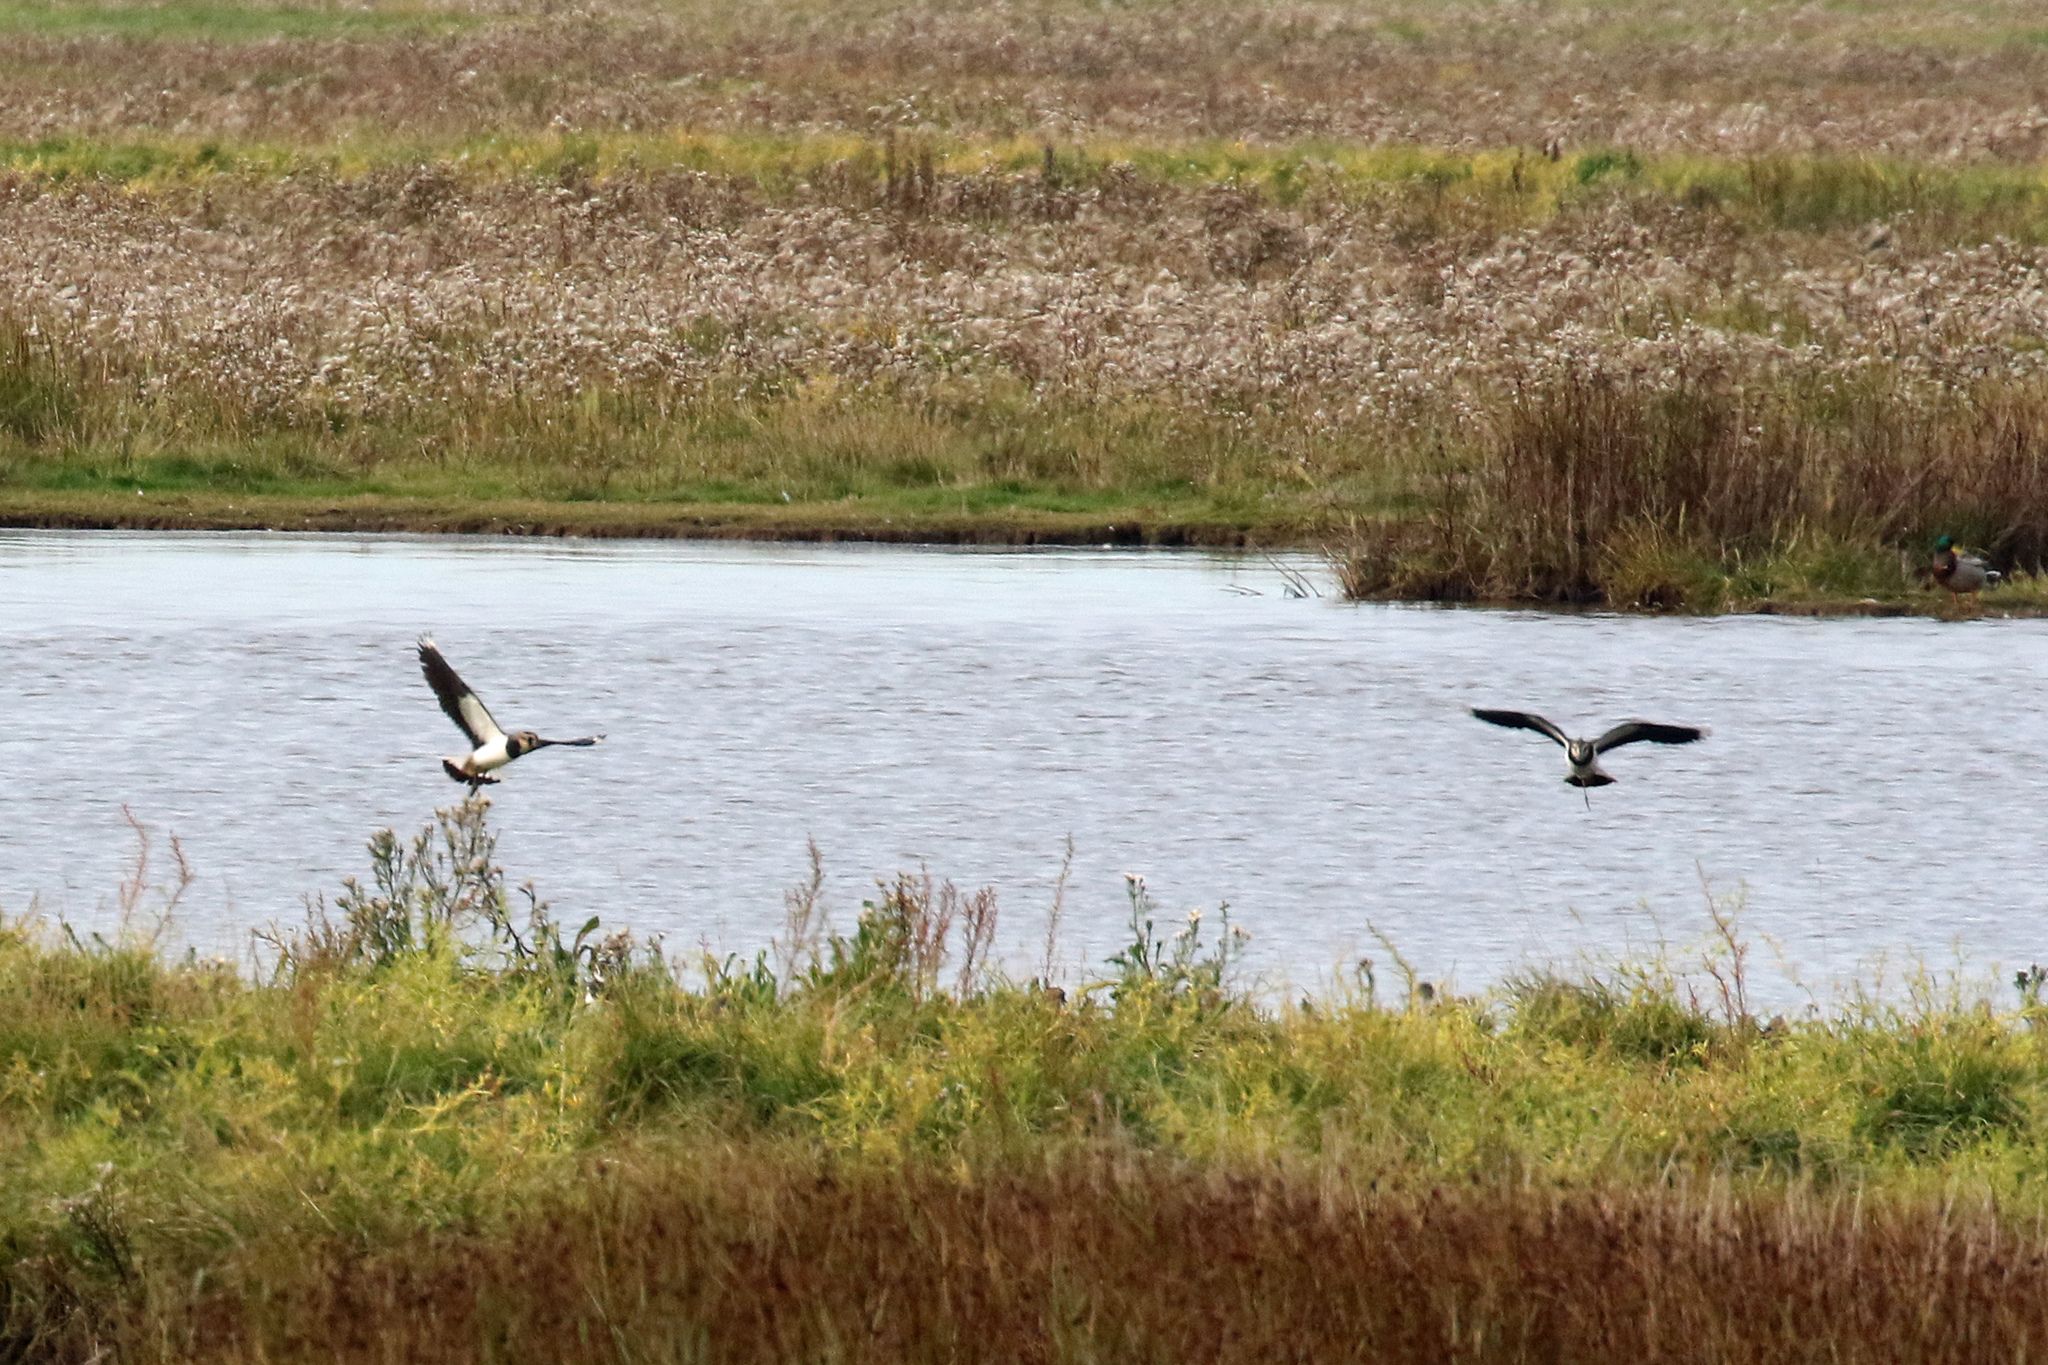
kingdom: Animalia
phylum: Chordata
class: Aves
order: Charadriiformes
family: Charadriidae
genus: Vanellus
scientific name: Vanellus vanellus
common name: Northern lapwing
